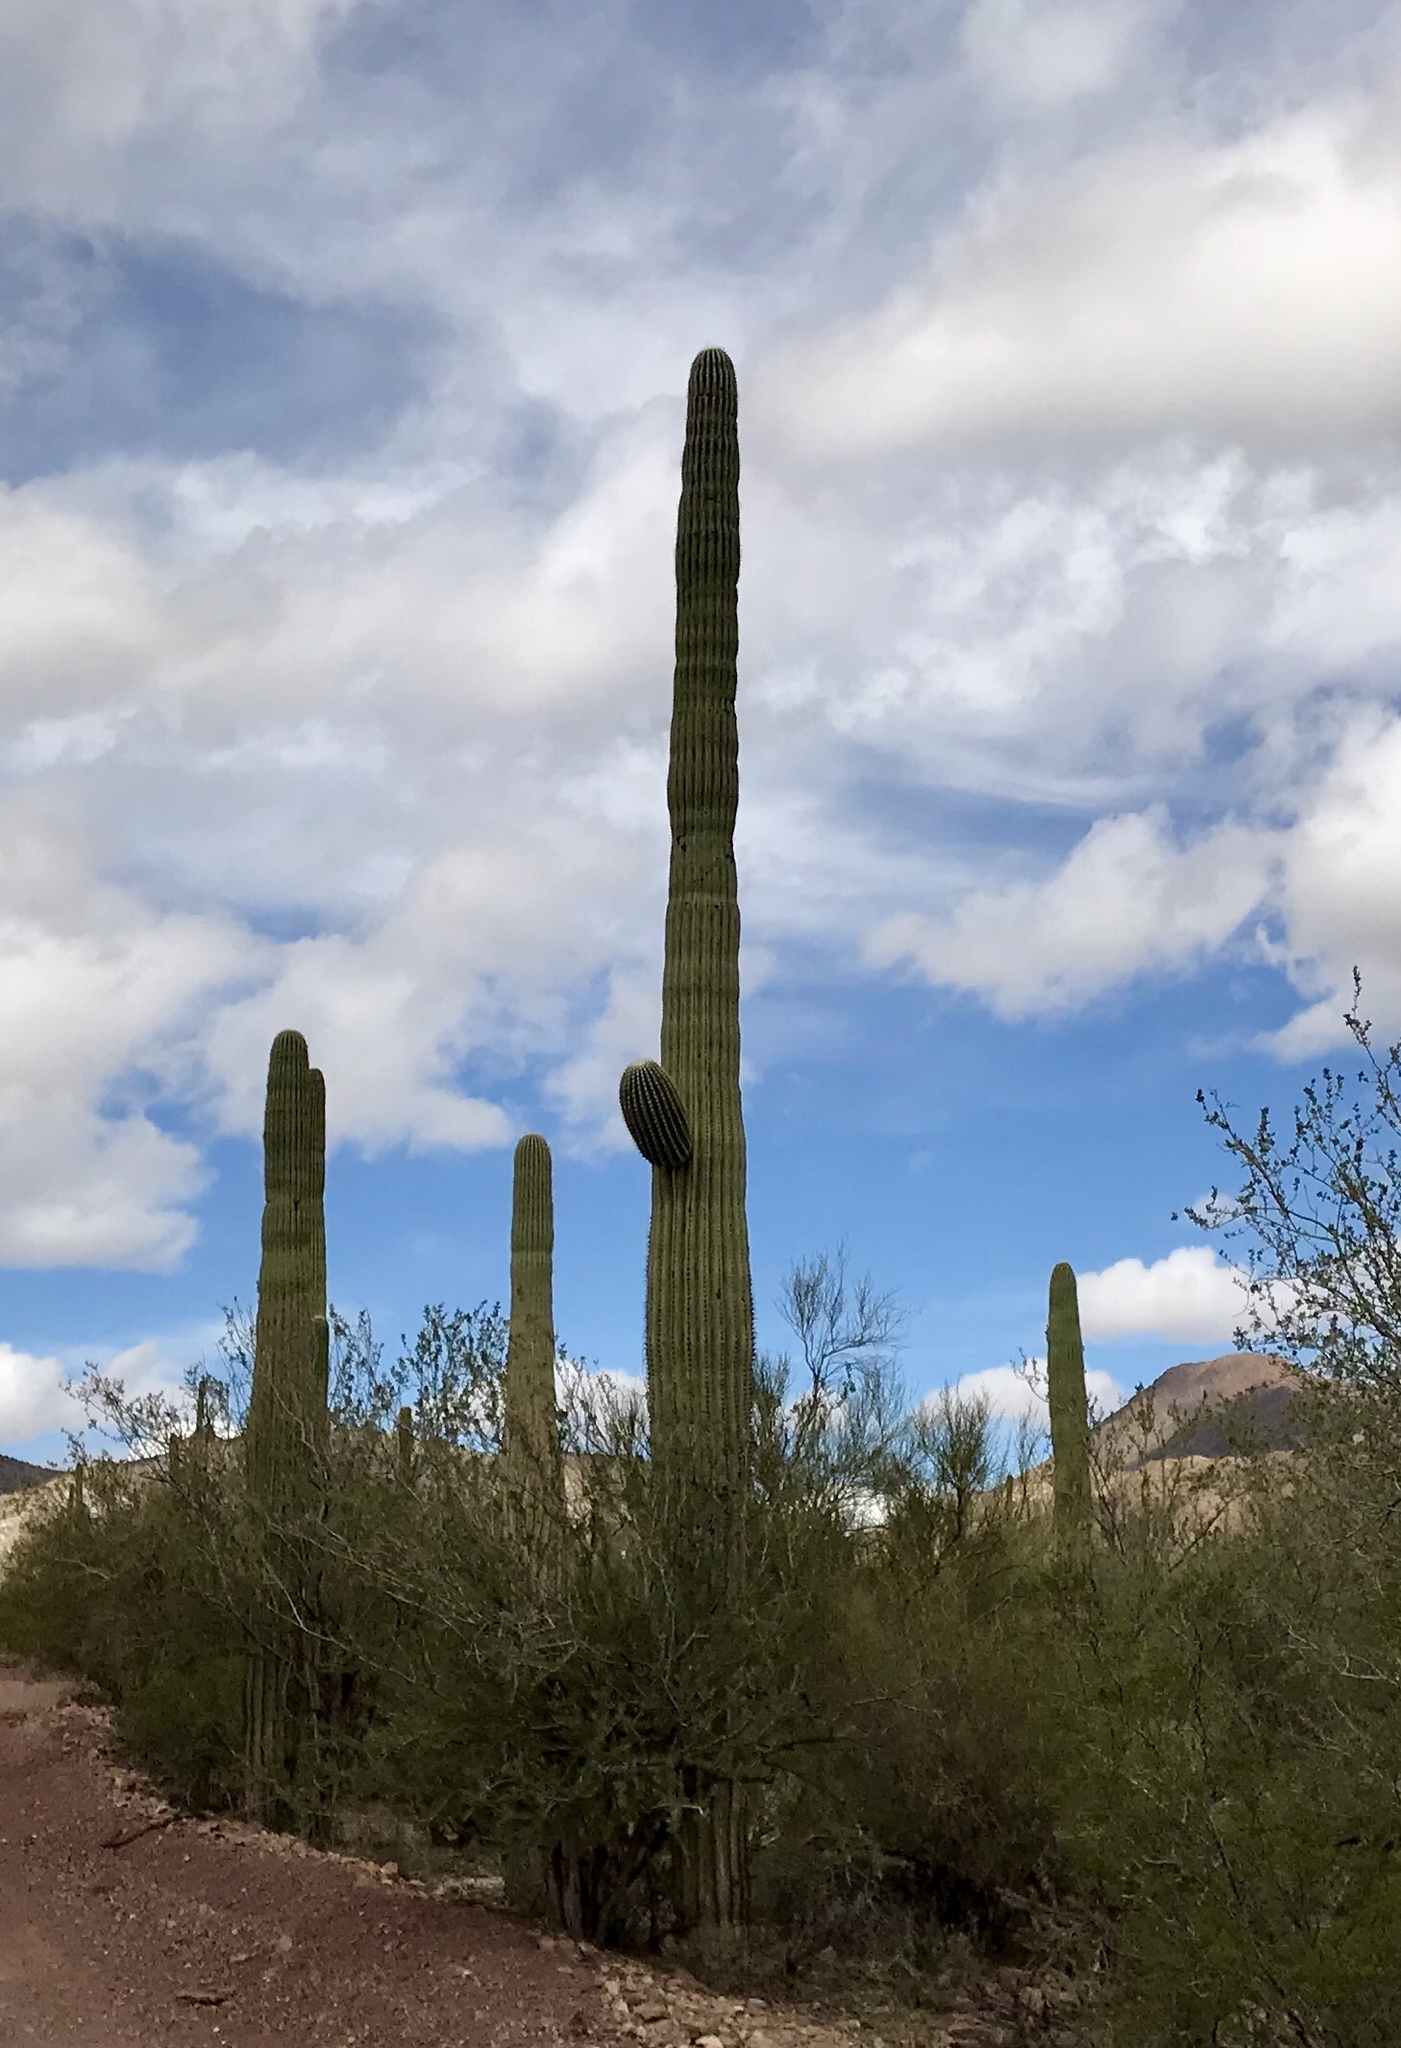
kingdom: Plantae
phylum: Tracheophyta
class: Magnoliopsida
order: Caryophyllales
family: Cactaceae
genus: Carnegiea
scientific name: Carnegiea gigantea
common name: Saguaro
